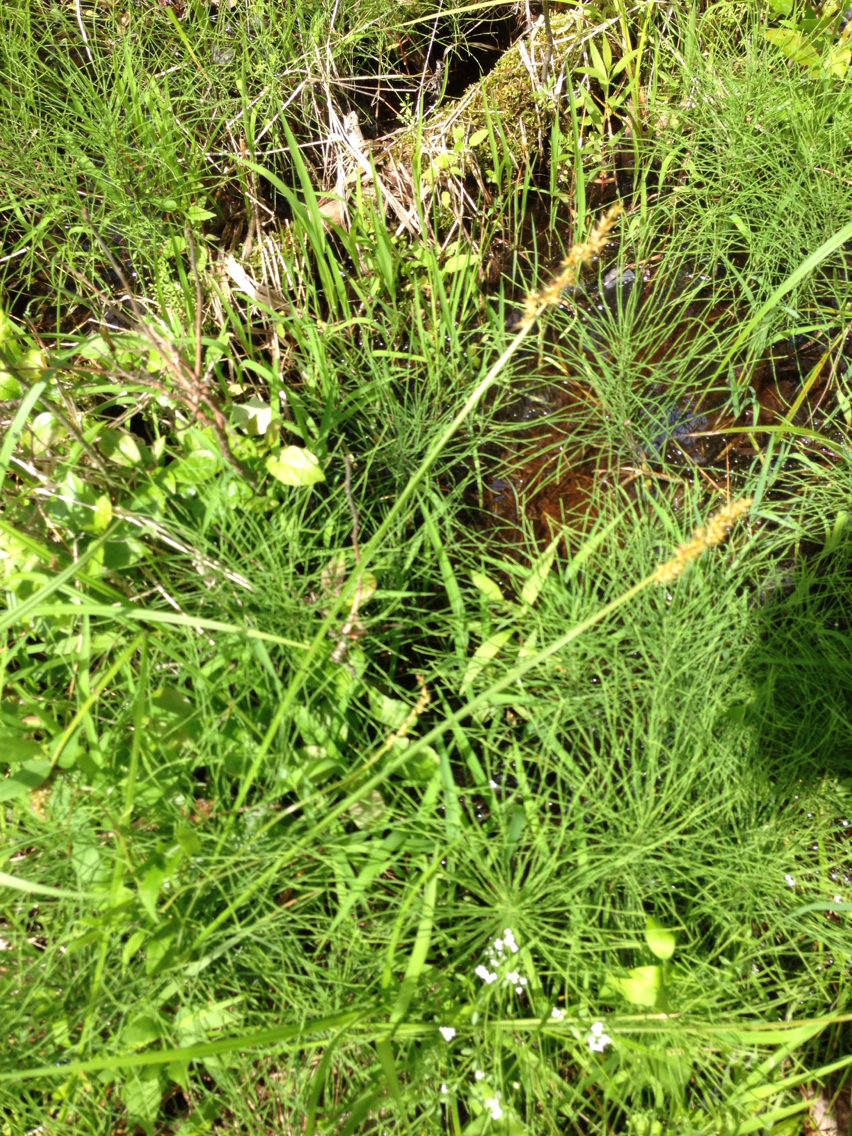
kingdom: Plantae
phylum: Tracheophyta
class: Liliopsida
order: Poales
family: Cyperaceae
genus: Carex
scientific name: Carex vulpinoidea
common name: American fox-sedge
